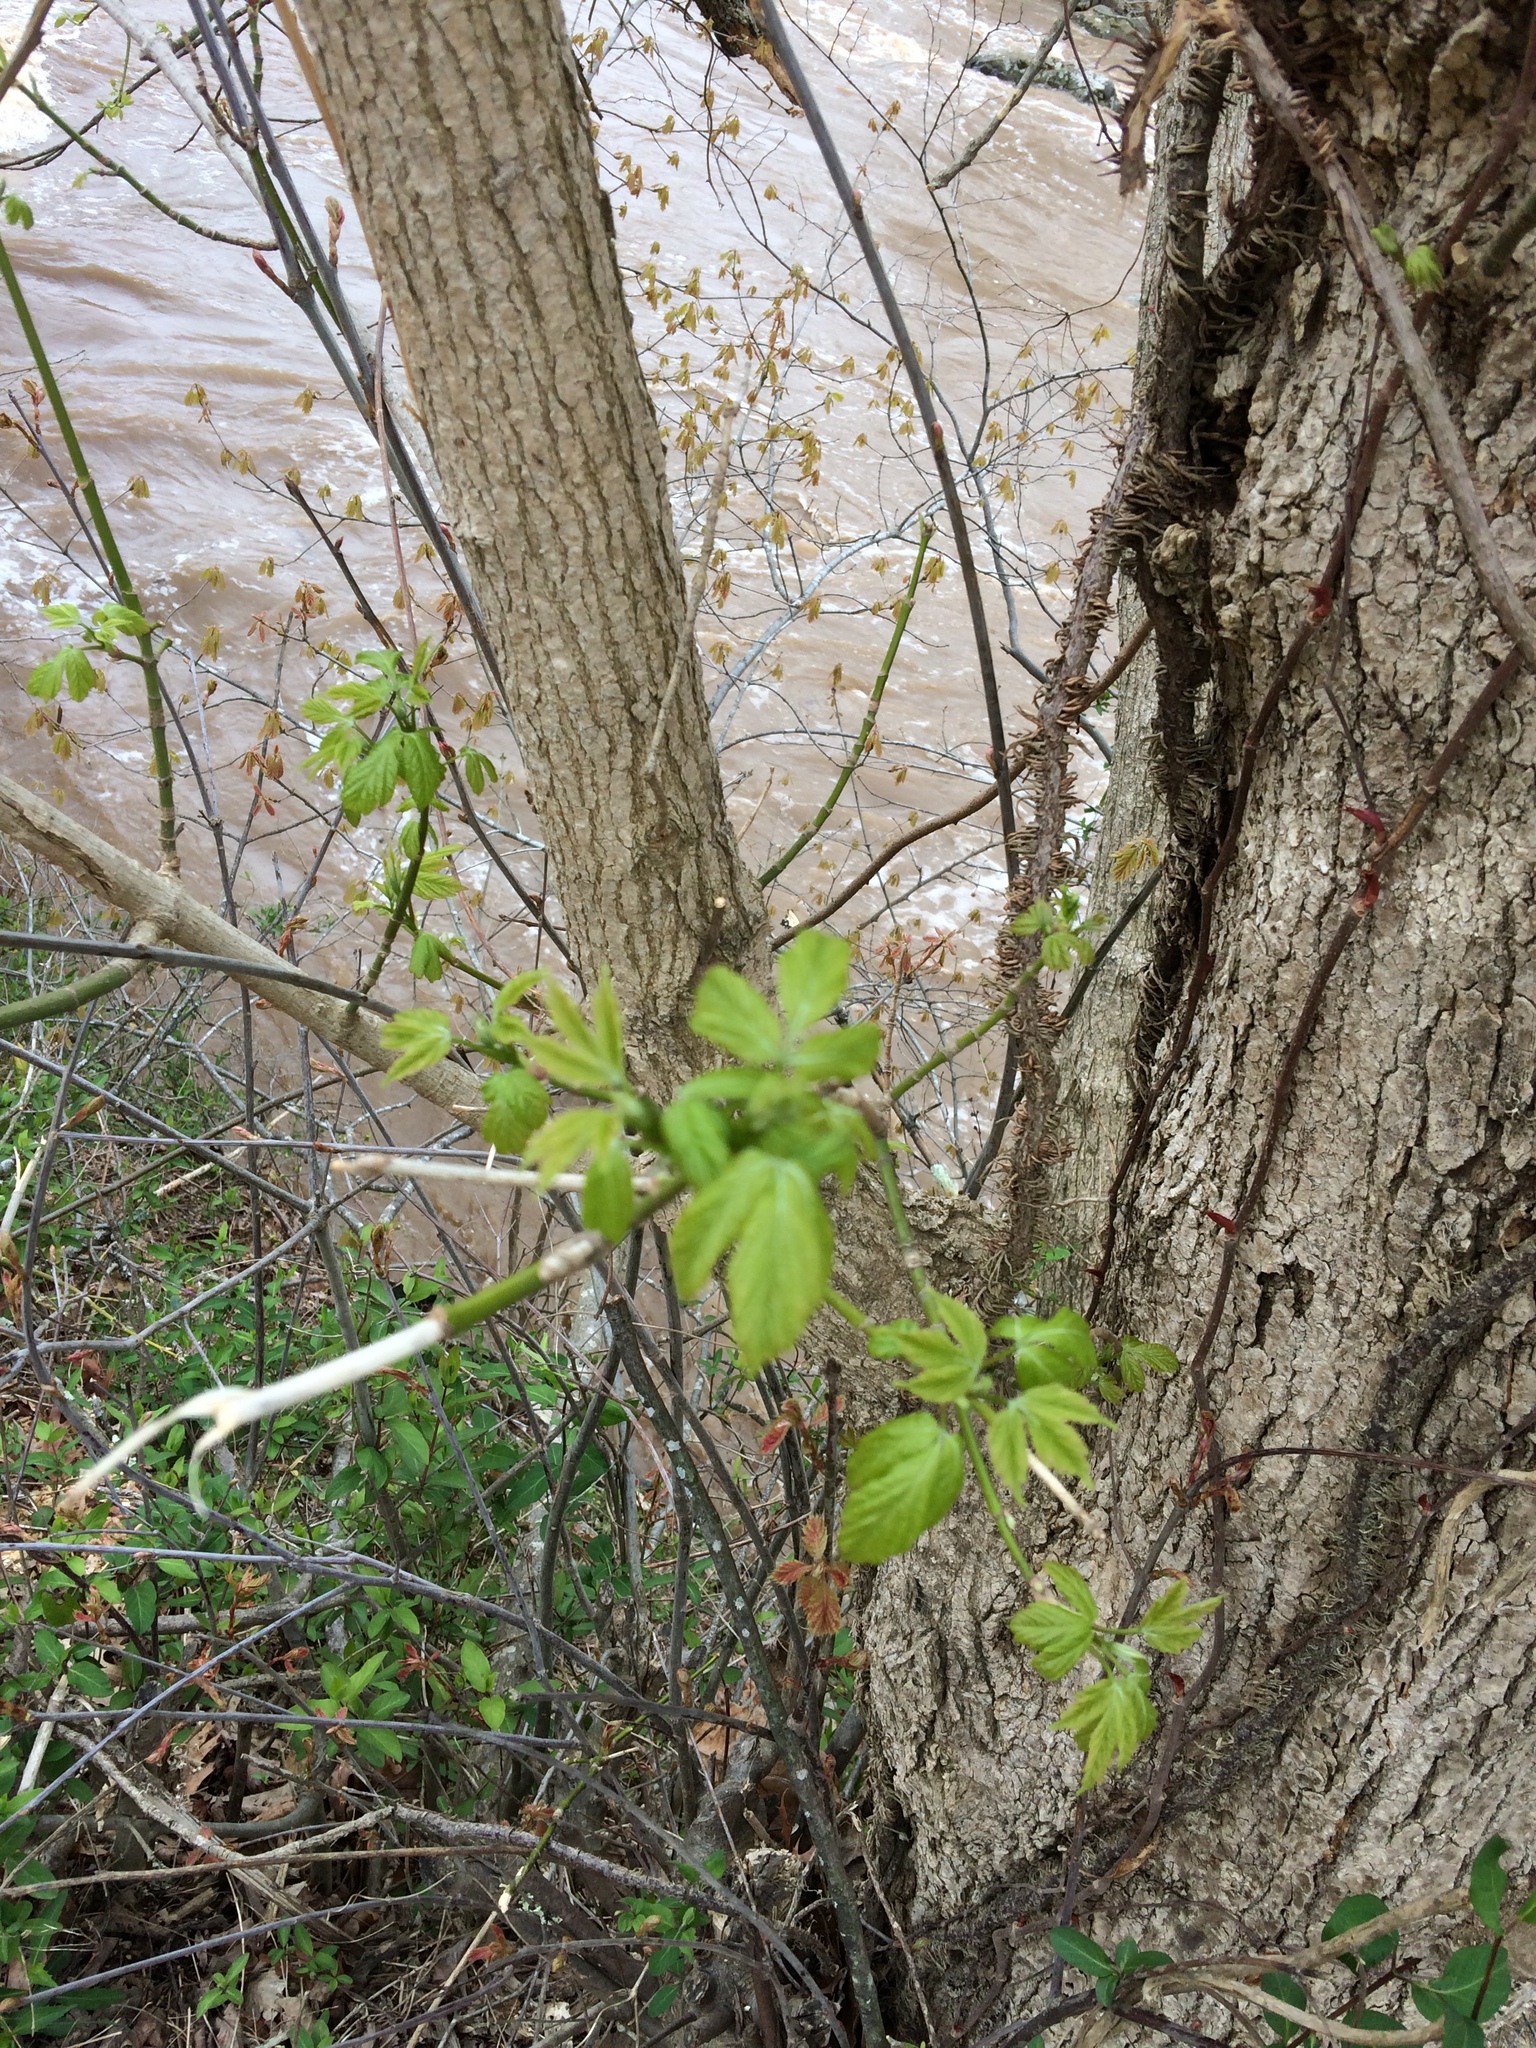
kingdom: Plantae
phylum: Tracheophyta
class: Magnoliopsida
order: Sapindales
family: Sapindaceae
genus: Acer
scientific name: Acer negundo
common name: Ashleaf maple
